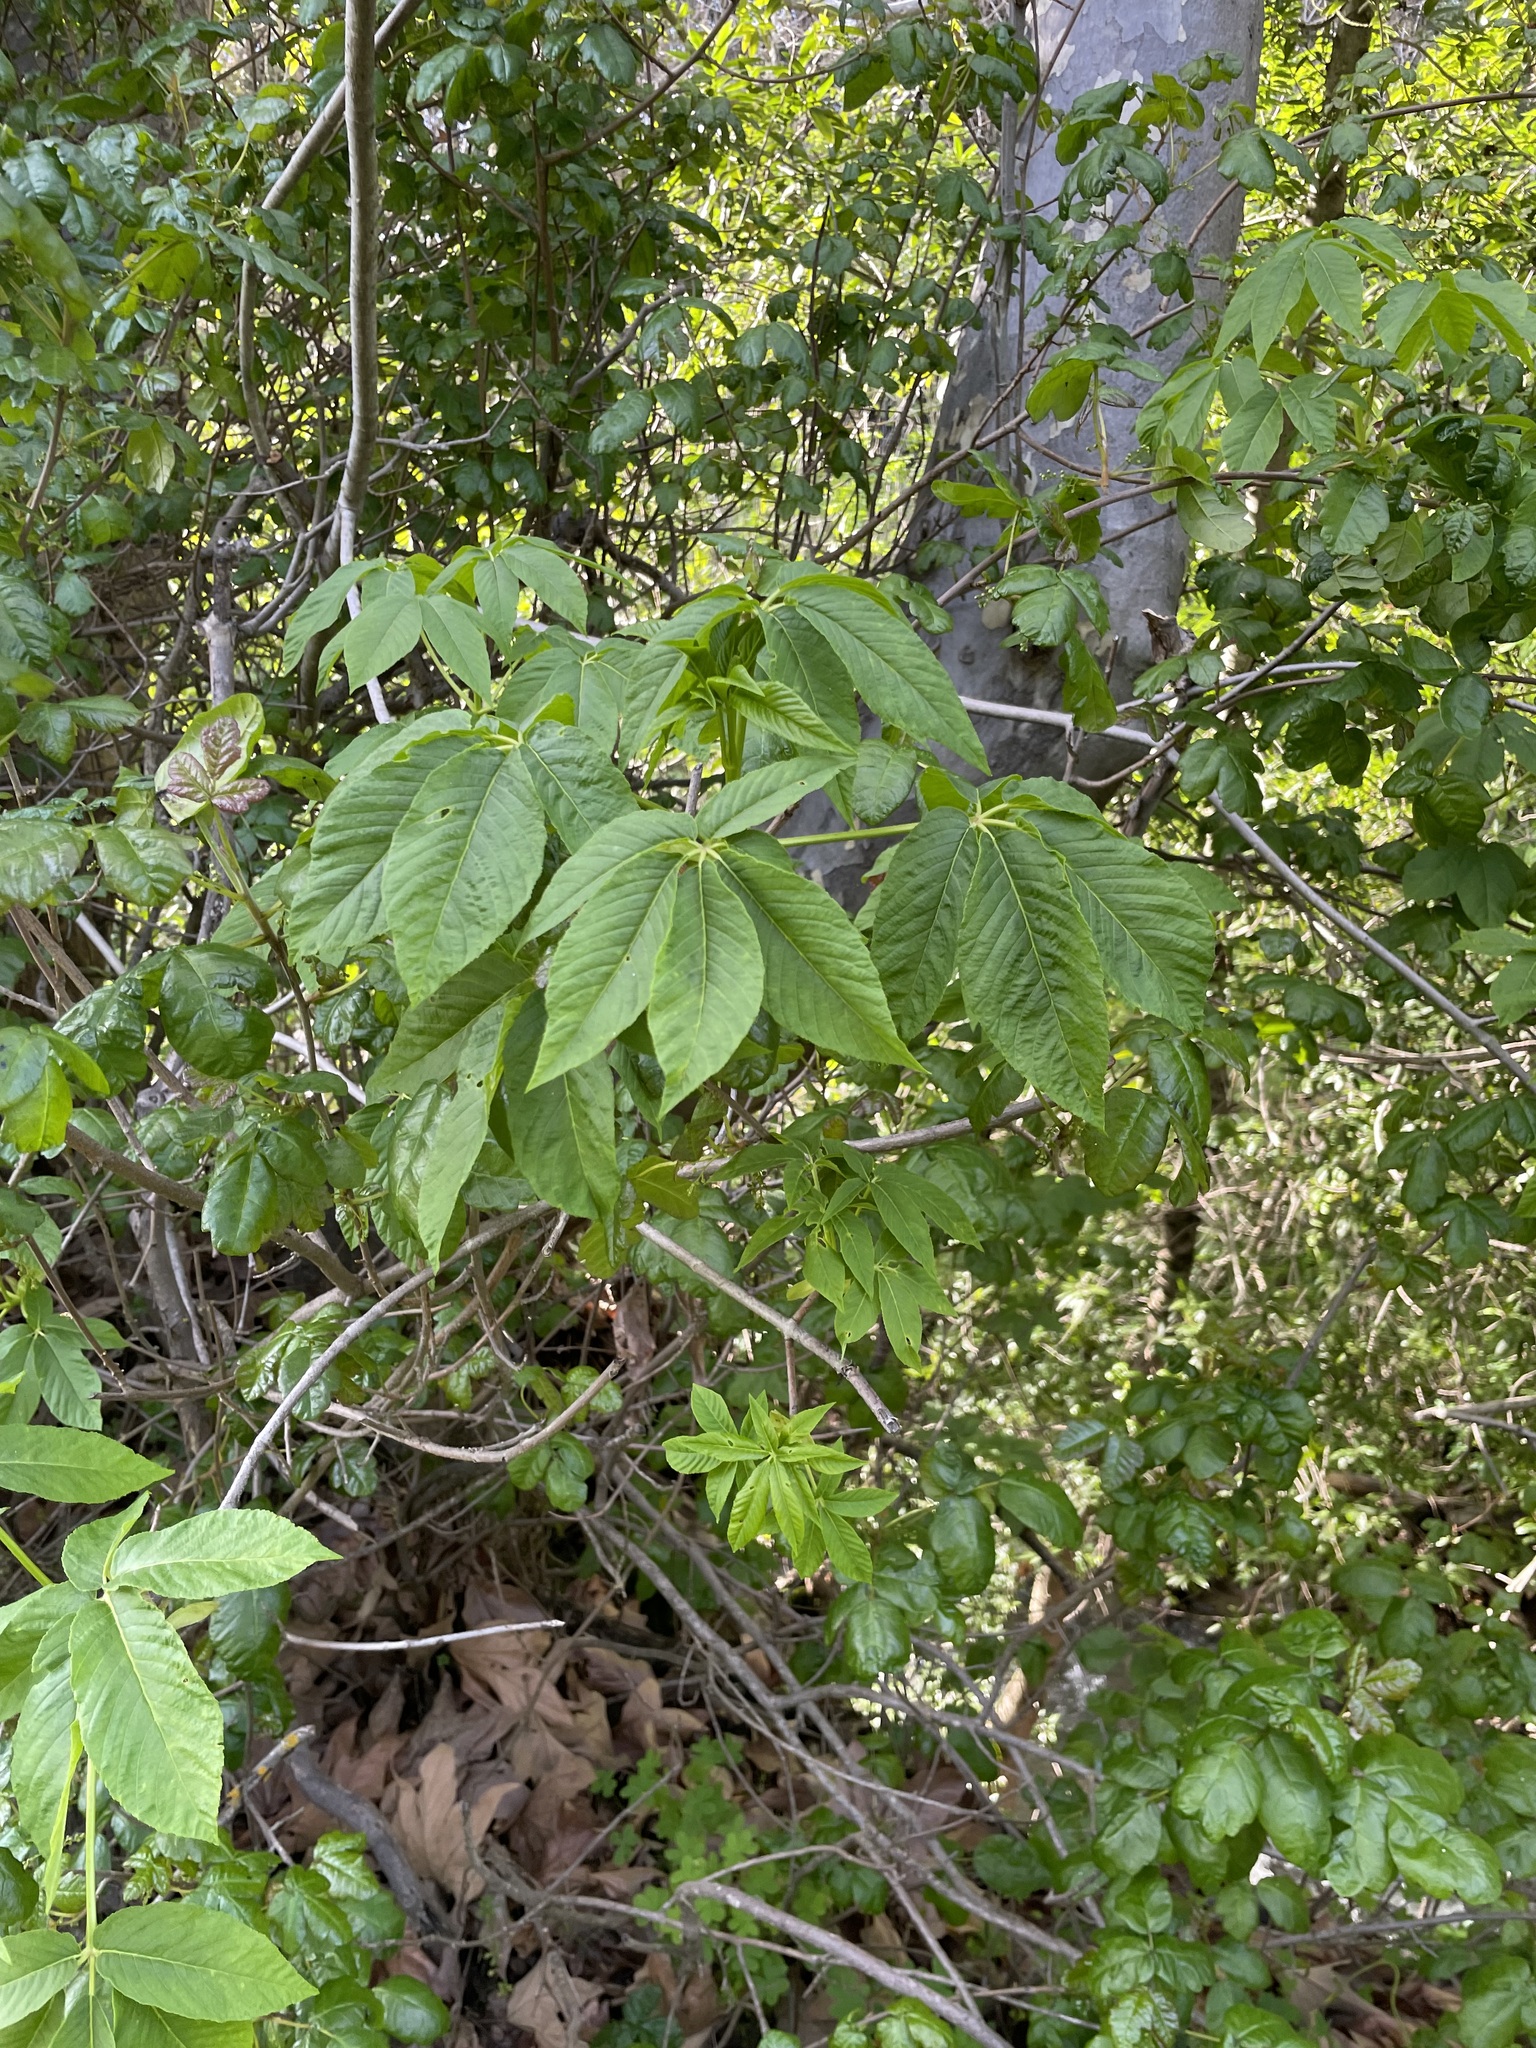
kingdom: Plantae
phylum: Tracheophyta
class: Magnoliopsida
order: Sapindales
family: Sapindaceae
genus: Aesculus
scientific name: Aesculus californica
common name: California buckeye
